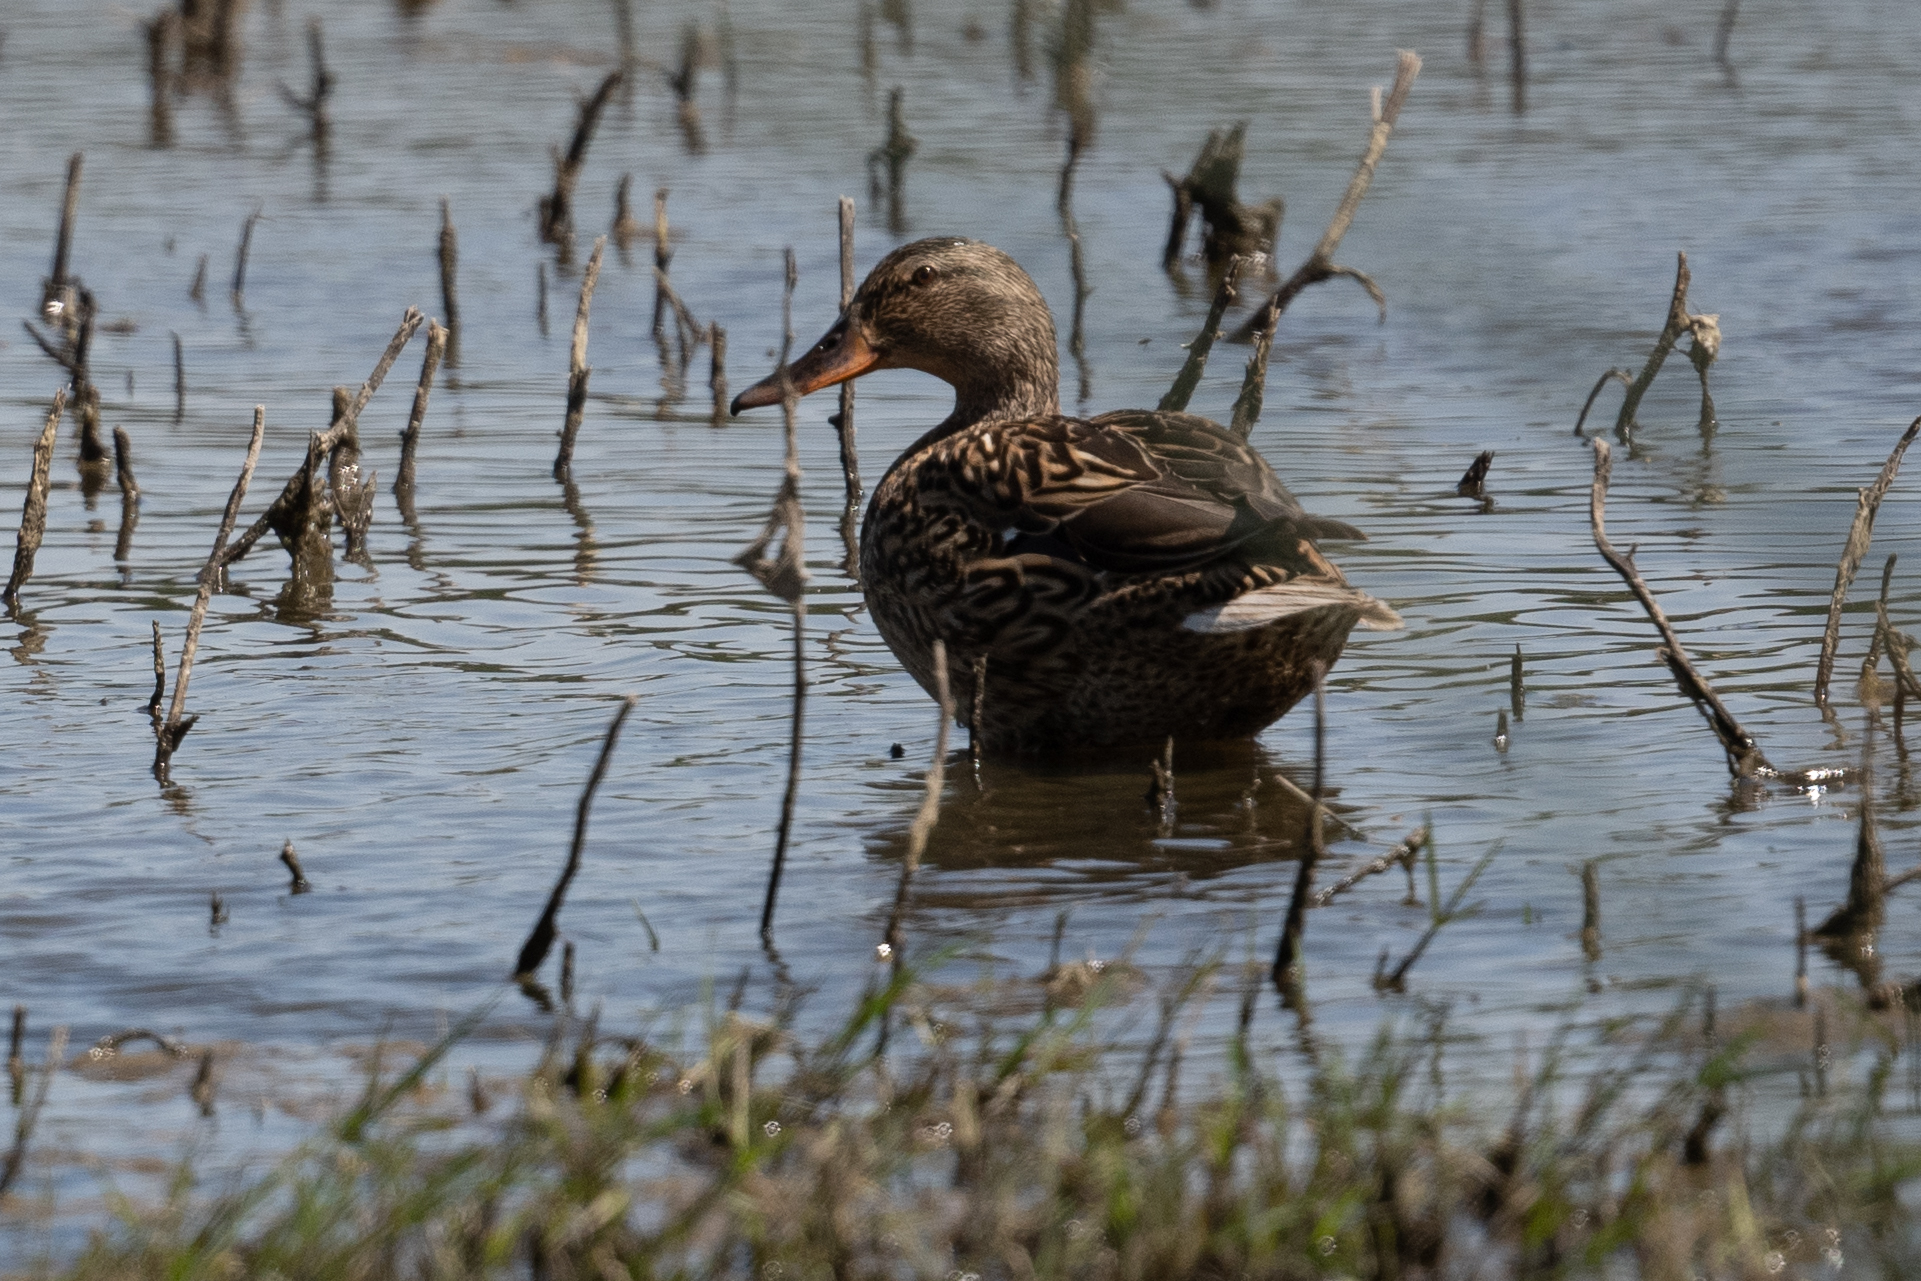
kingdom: Animalia
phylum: Chordata
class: Aves
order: Anseriformes
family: Anatidae
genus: Anas
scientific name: Anas platyrhynchos
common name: Mallard
